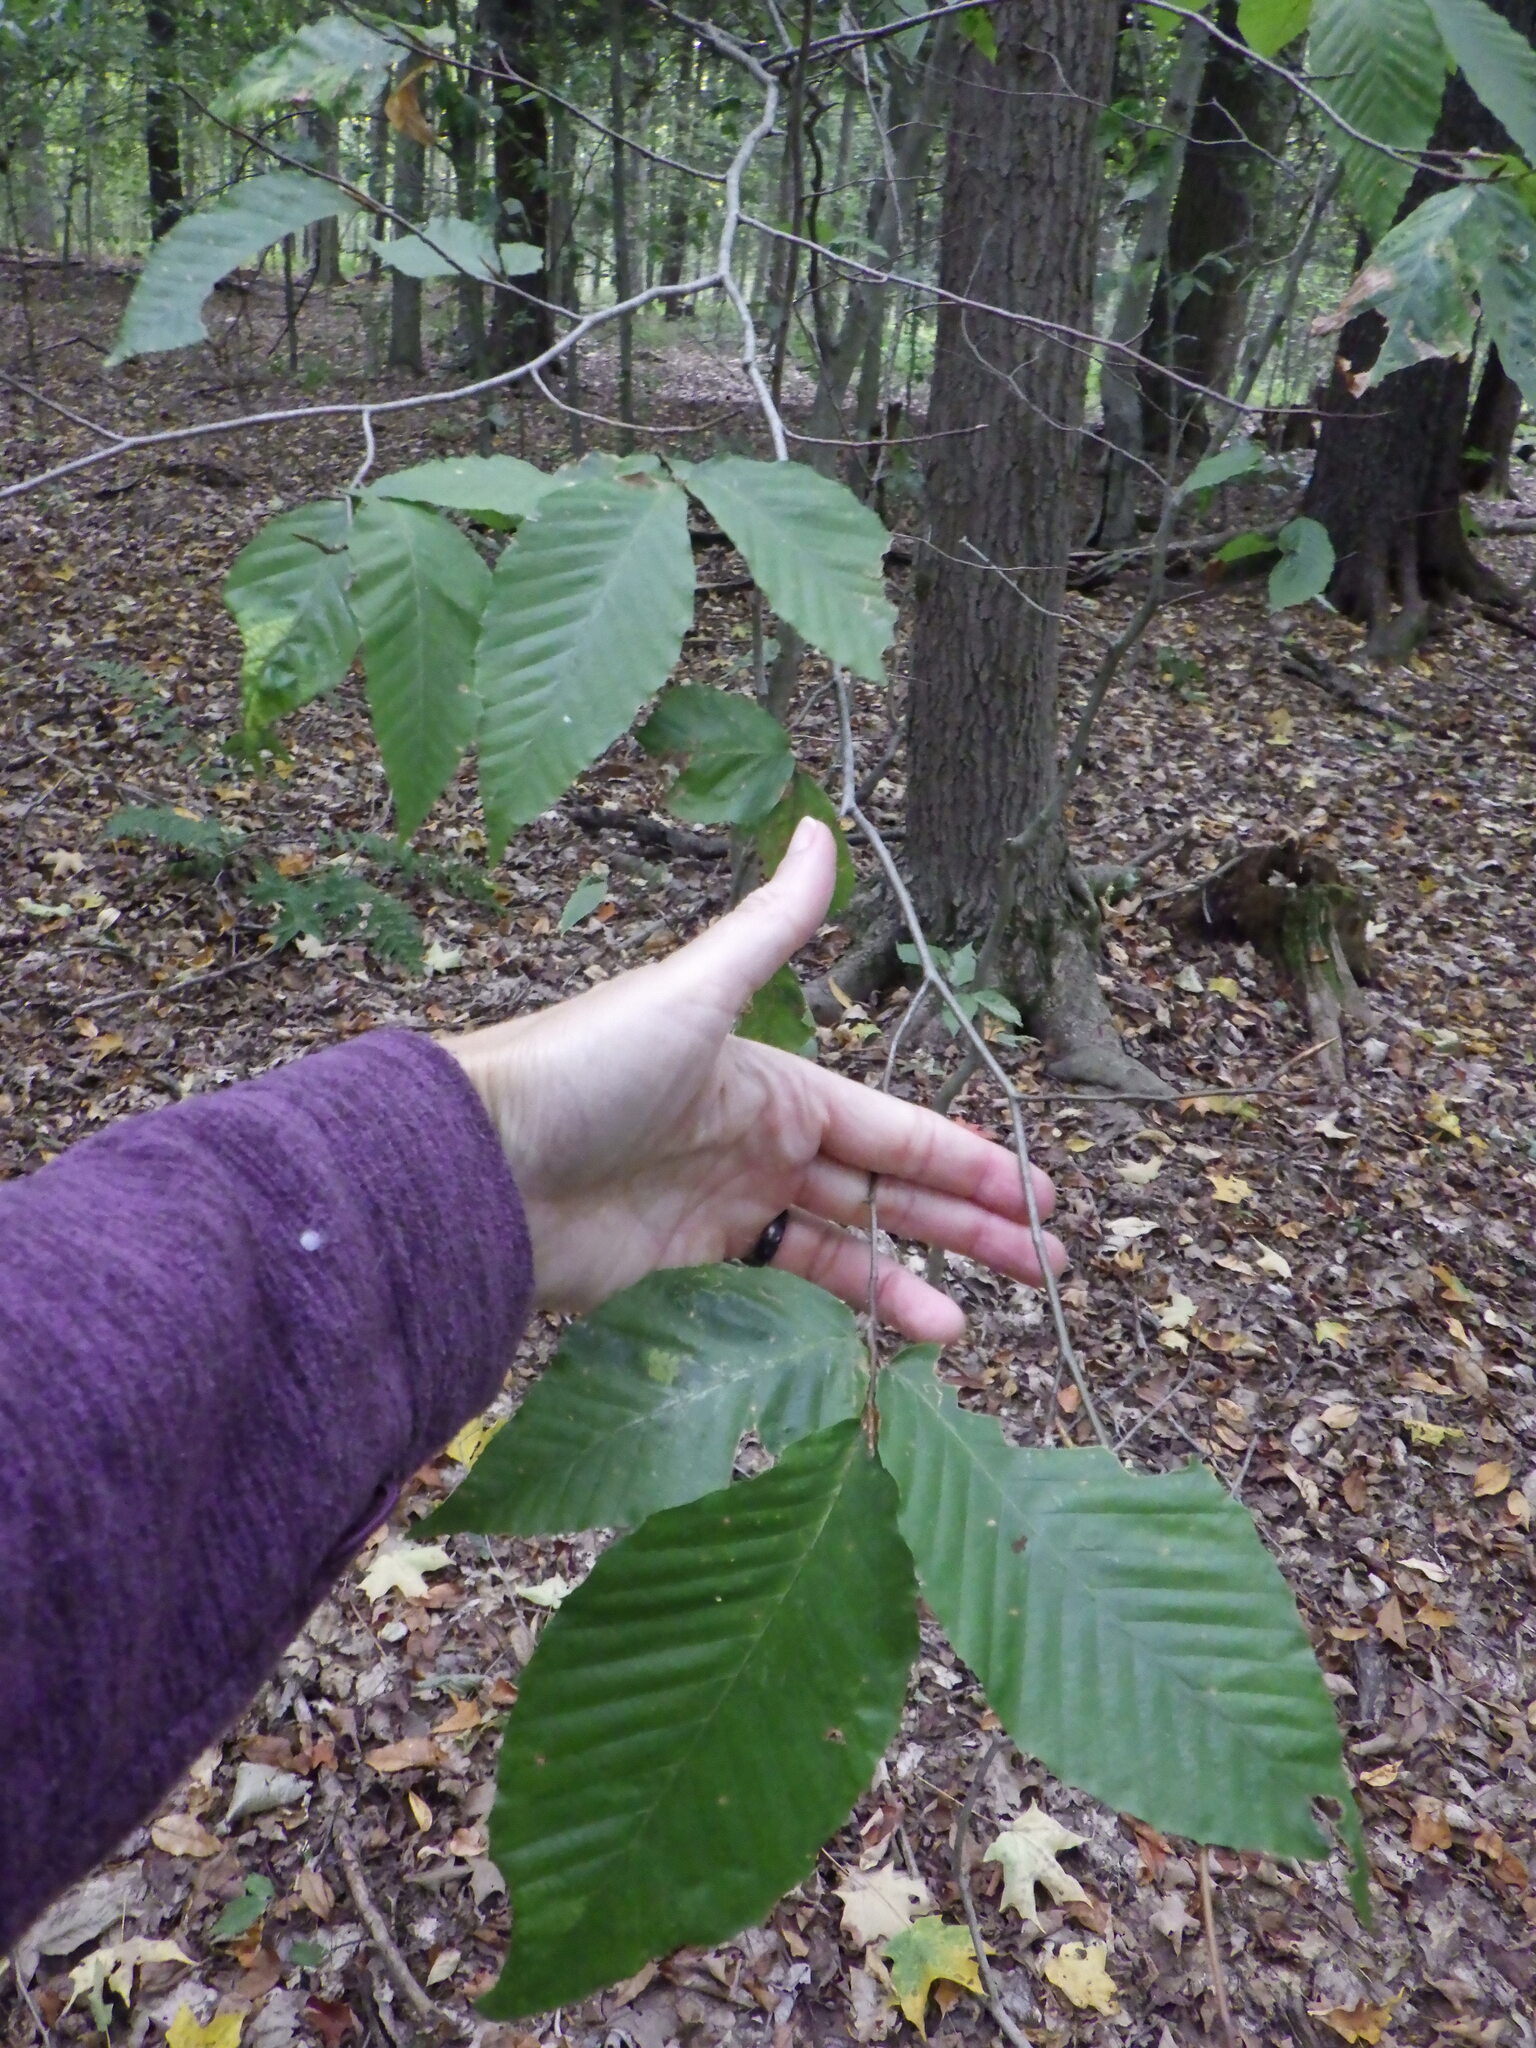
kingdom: Plantae
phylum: Tracheophyta
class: Magnoliopsida
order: Fagales
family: Fagaceae
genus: Fagus
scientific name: Fagus grandifolia
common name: American beech
